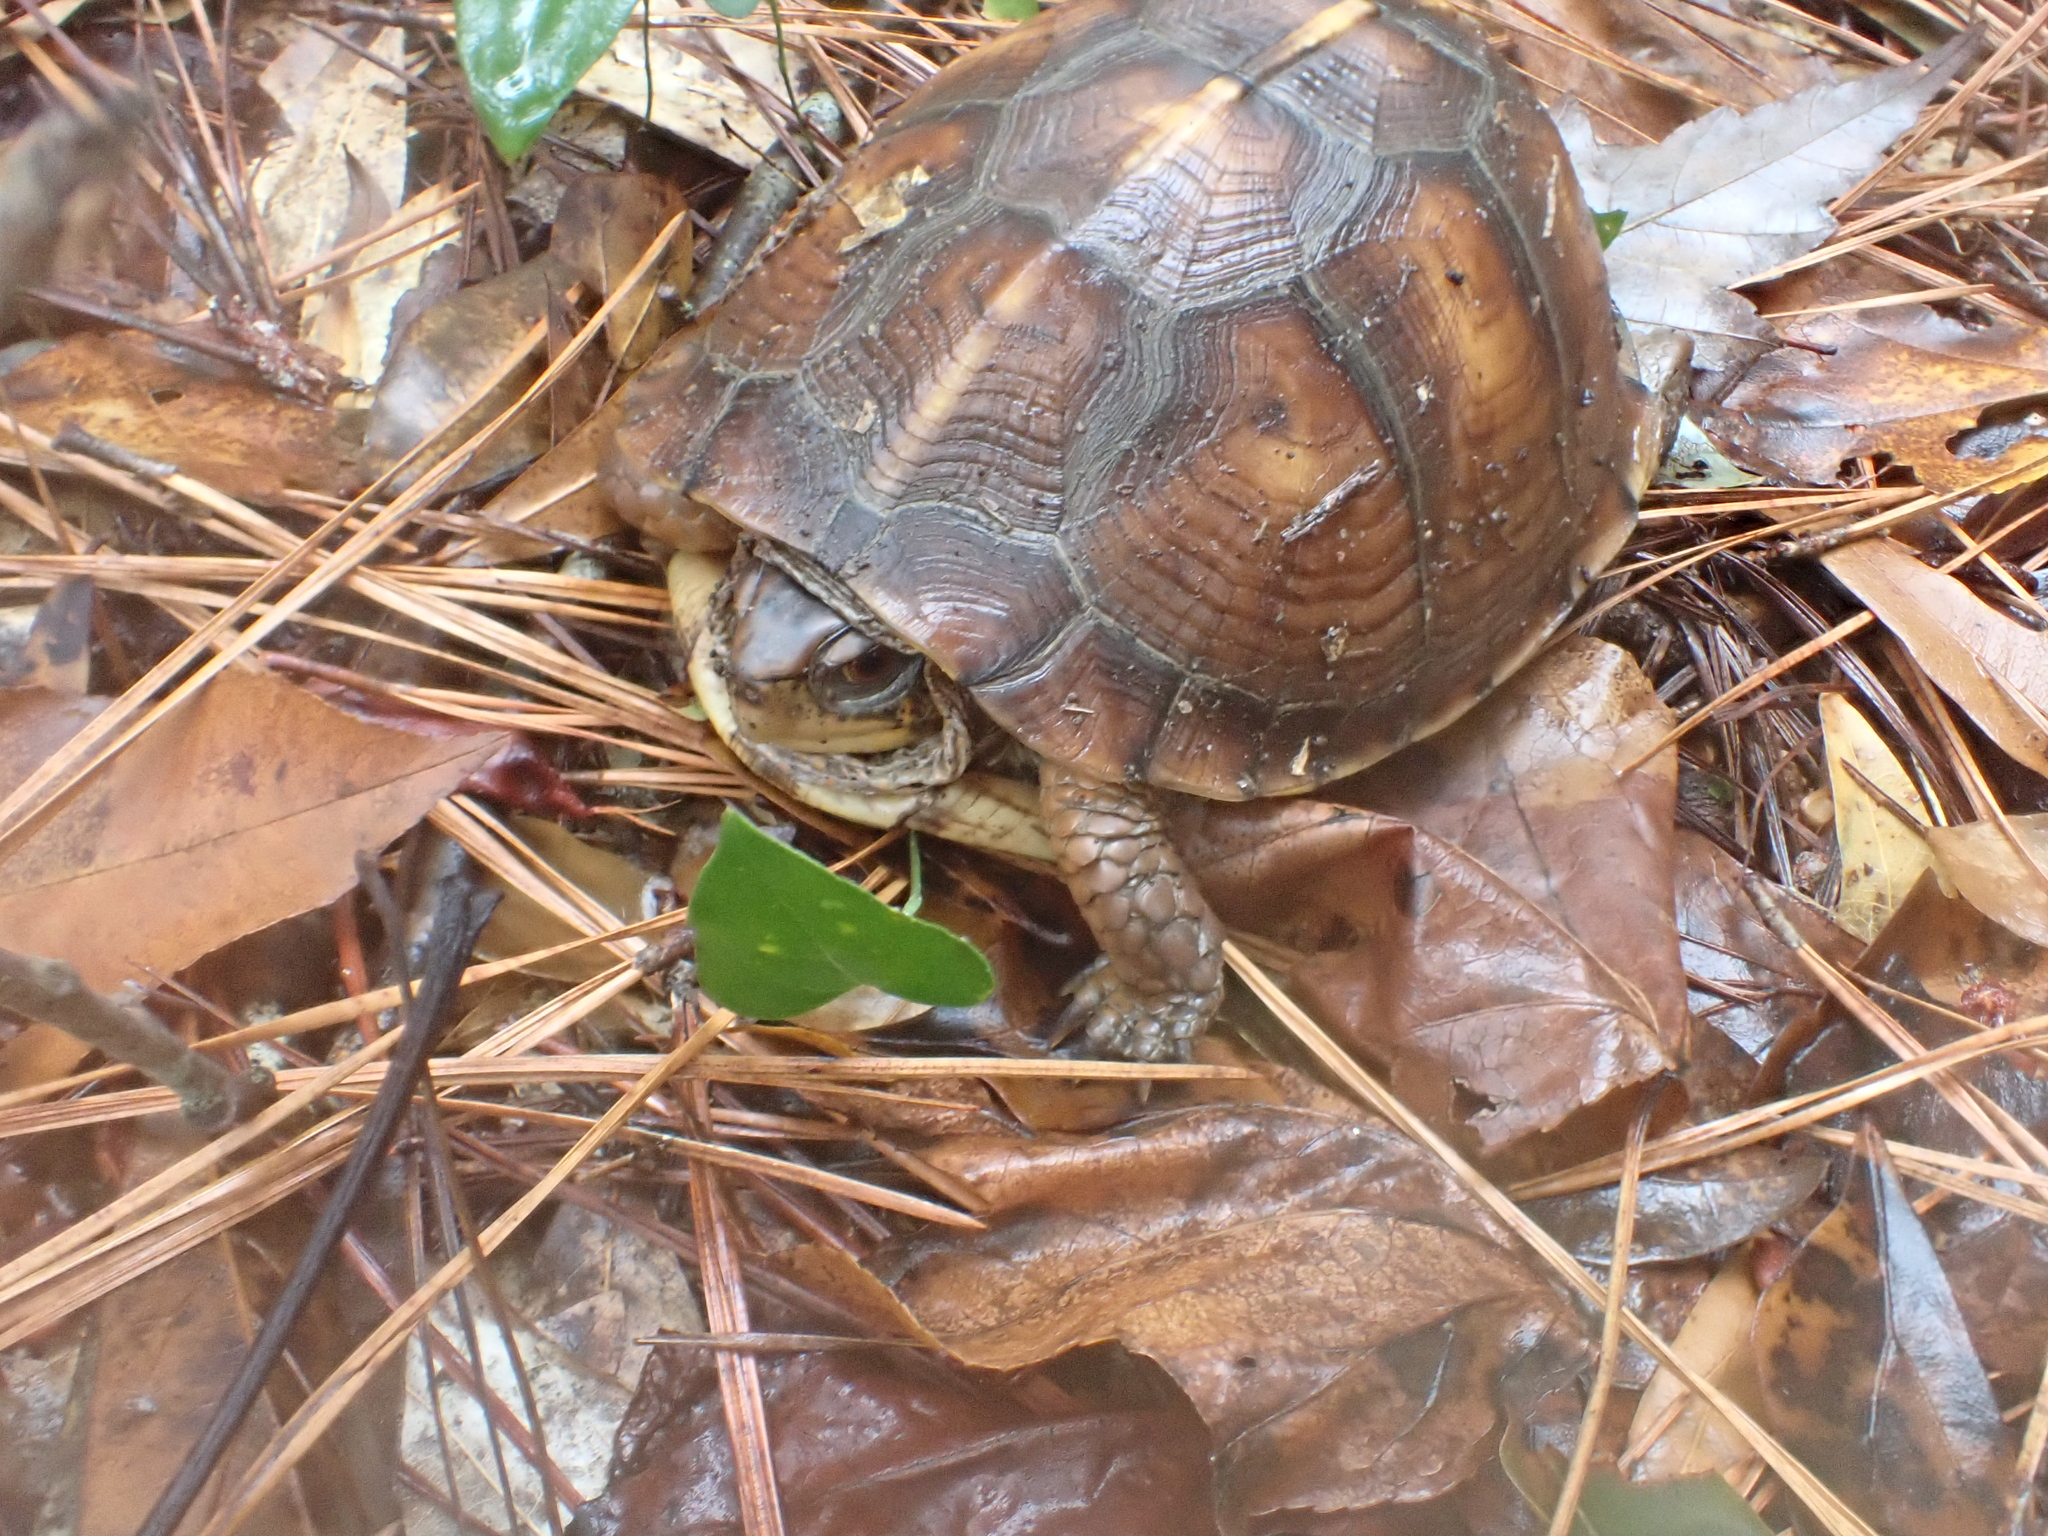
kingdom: Animalia
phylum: Chordata
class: Testudines
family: Emydidae
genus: Terrapene
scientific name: Terrapene carolina
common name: Common box turtle
